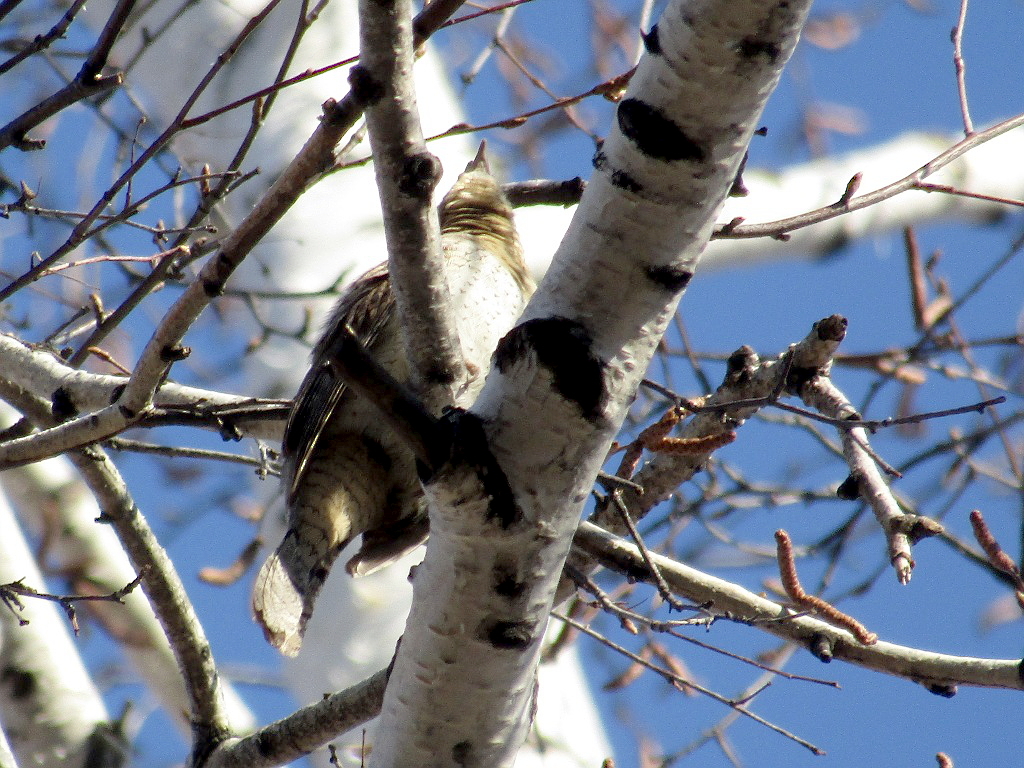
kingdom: Animalia
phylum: Chordata
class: Aves
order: Piciformes
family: Picidae
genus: Jynx
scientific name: Jynx torquilla
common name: Eurasian wryneck
